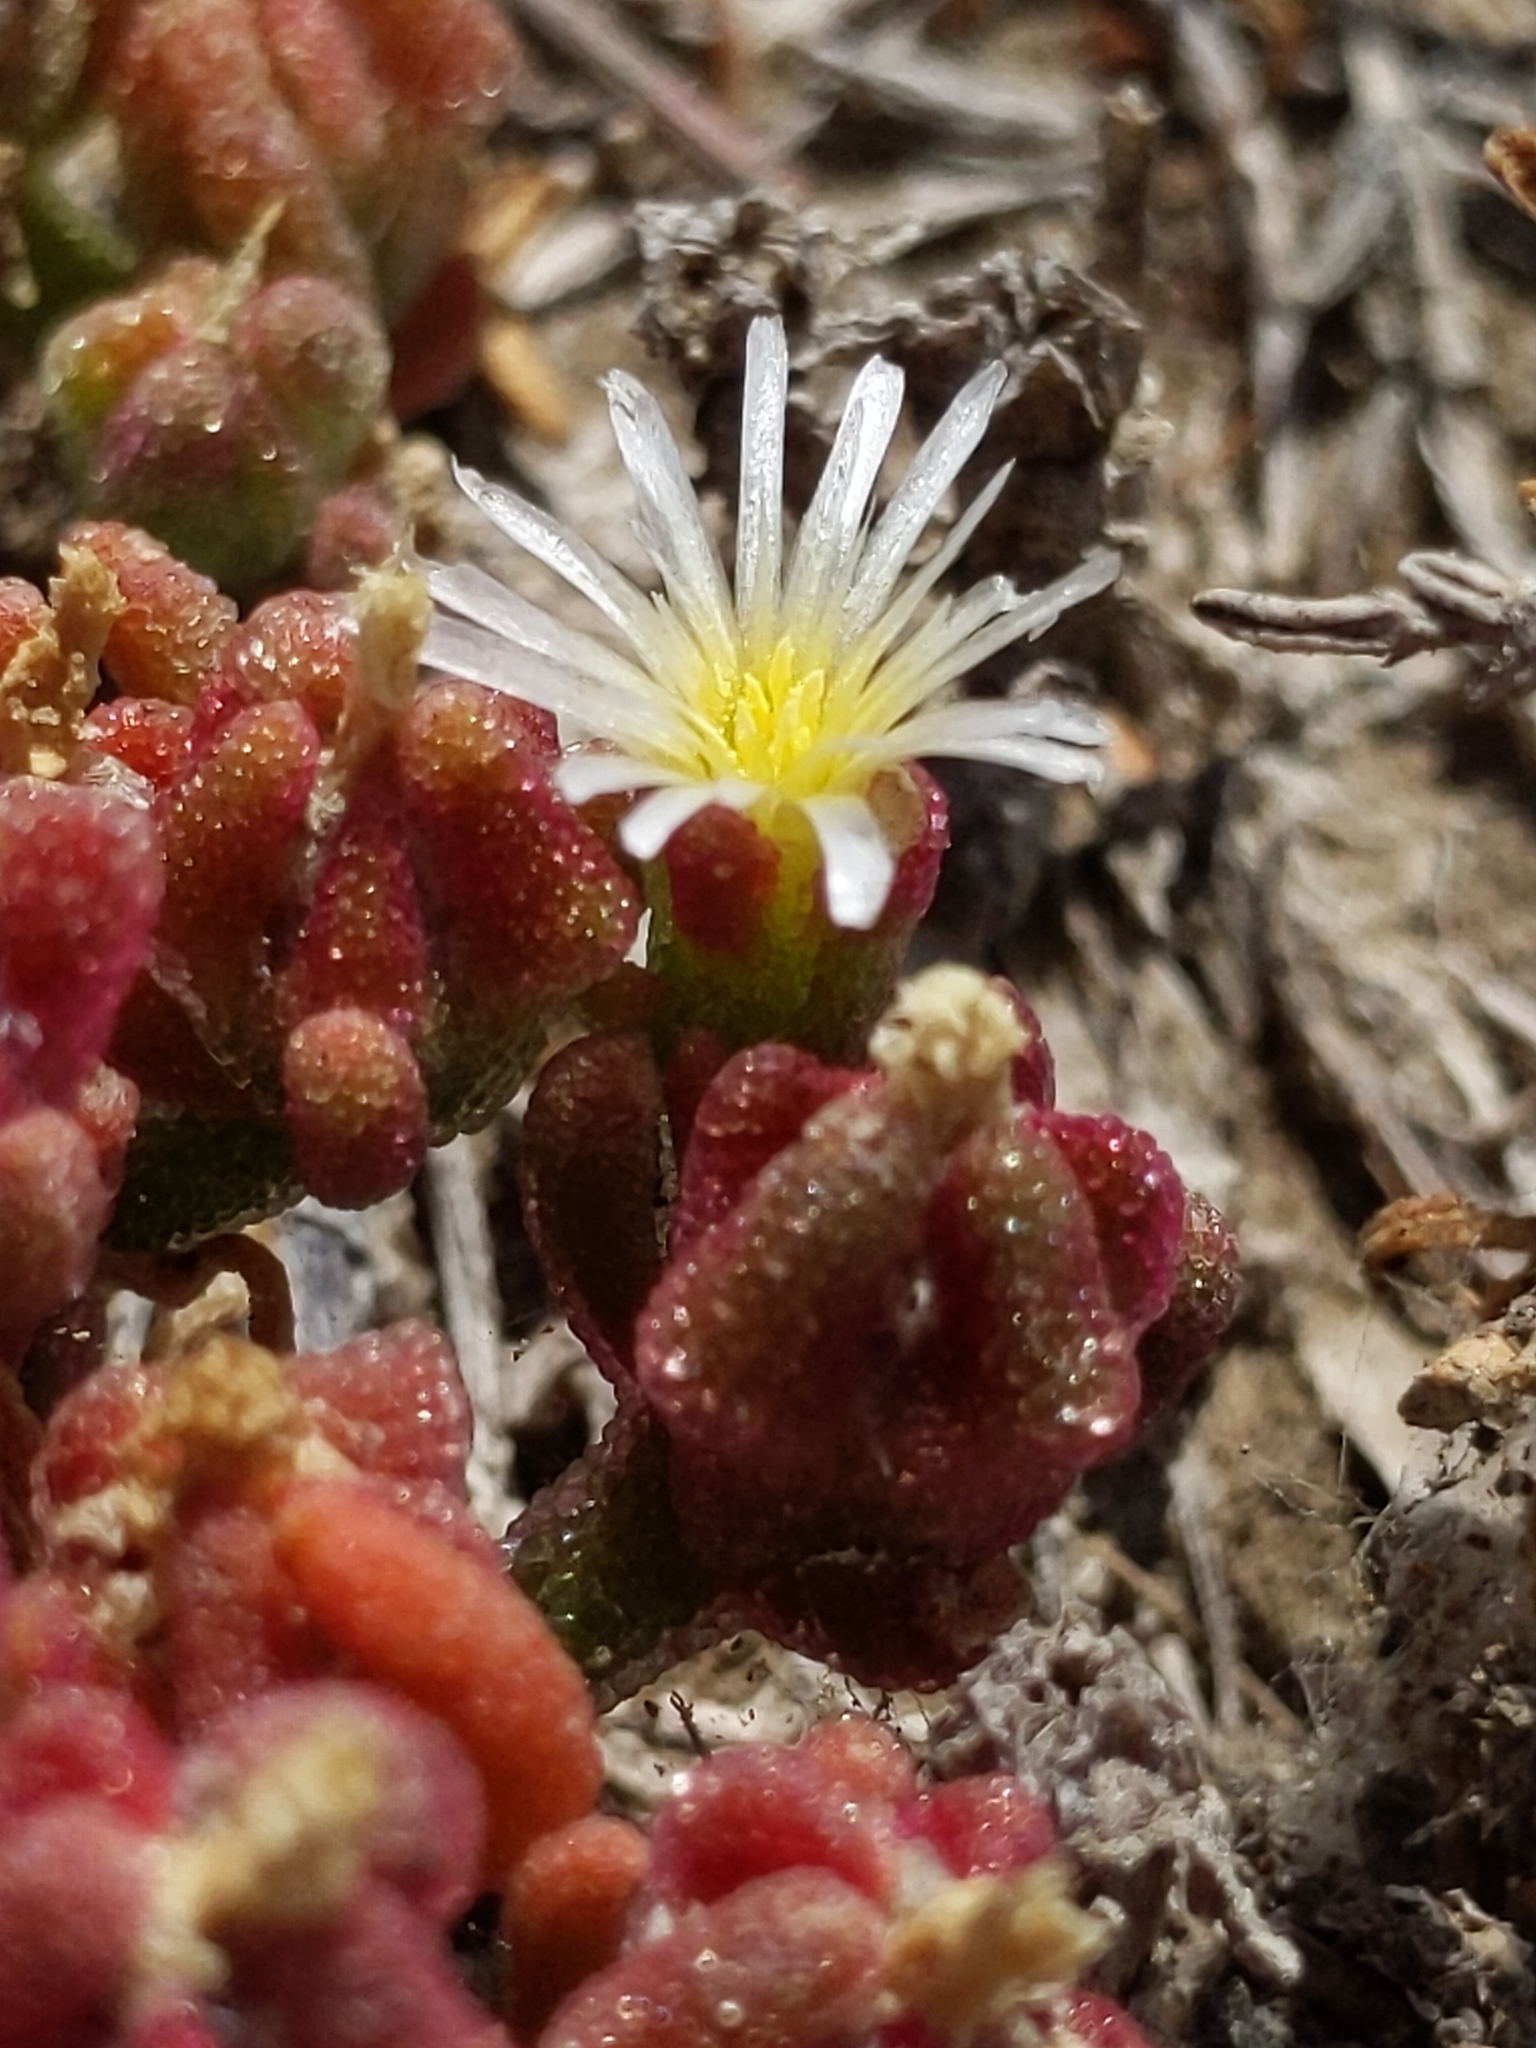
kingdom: Plantae
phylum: Tracheophyta
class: Magnoliopsida
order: Caryophyllales
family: Aizoaceae
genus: Mesembryanthemum
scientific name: Mesembryanthemum nodiflorum
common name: Slenderleaf iceplant
